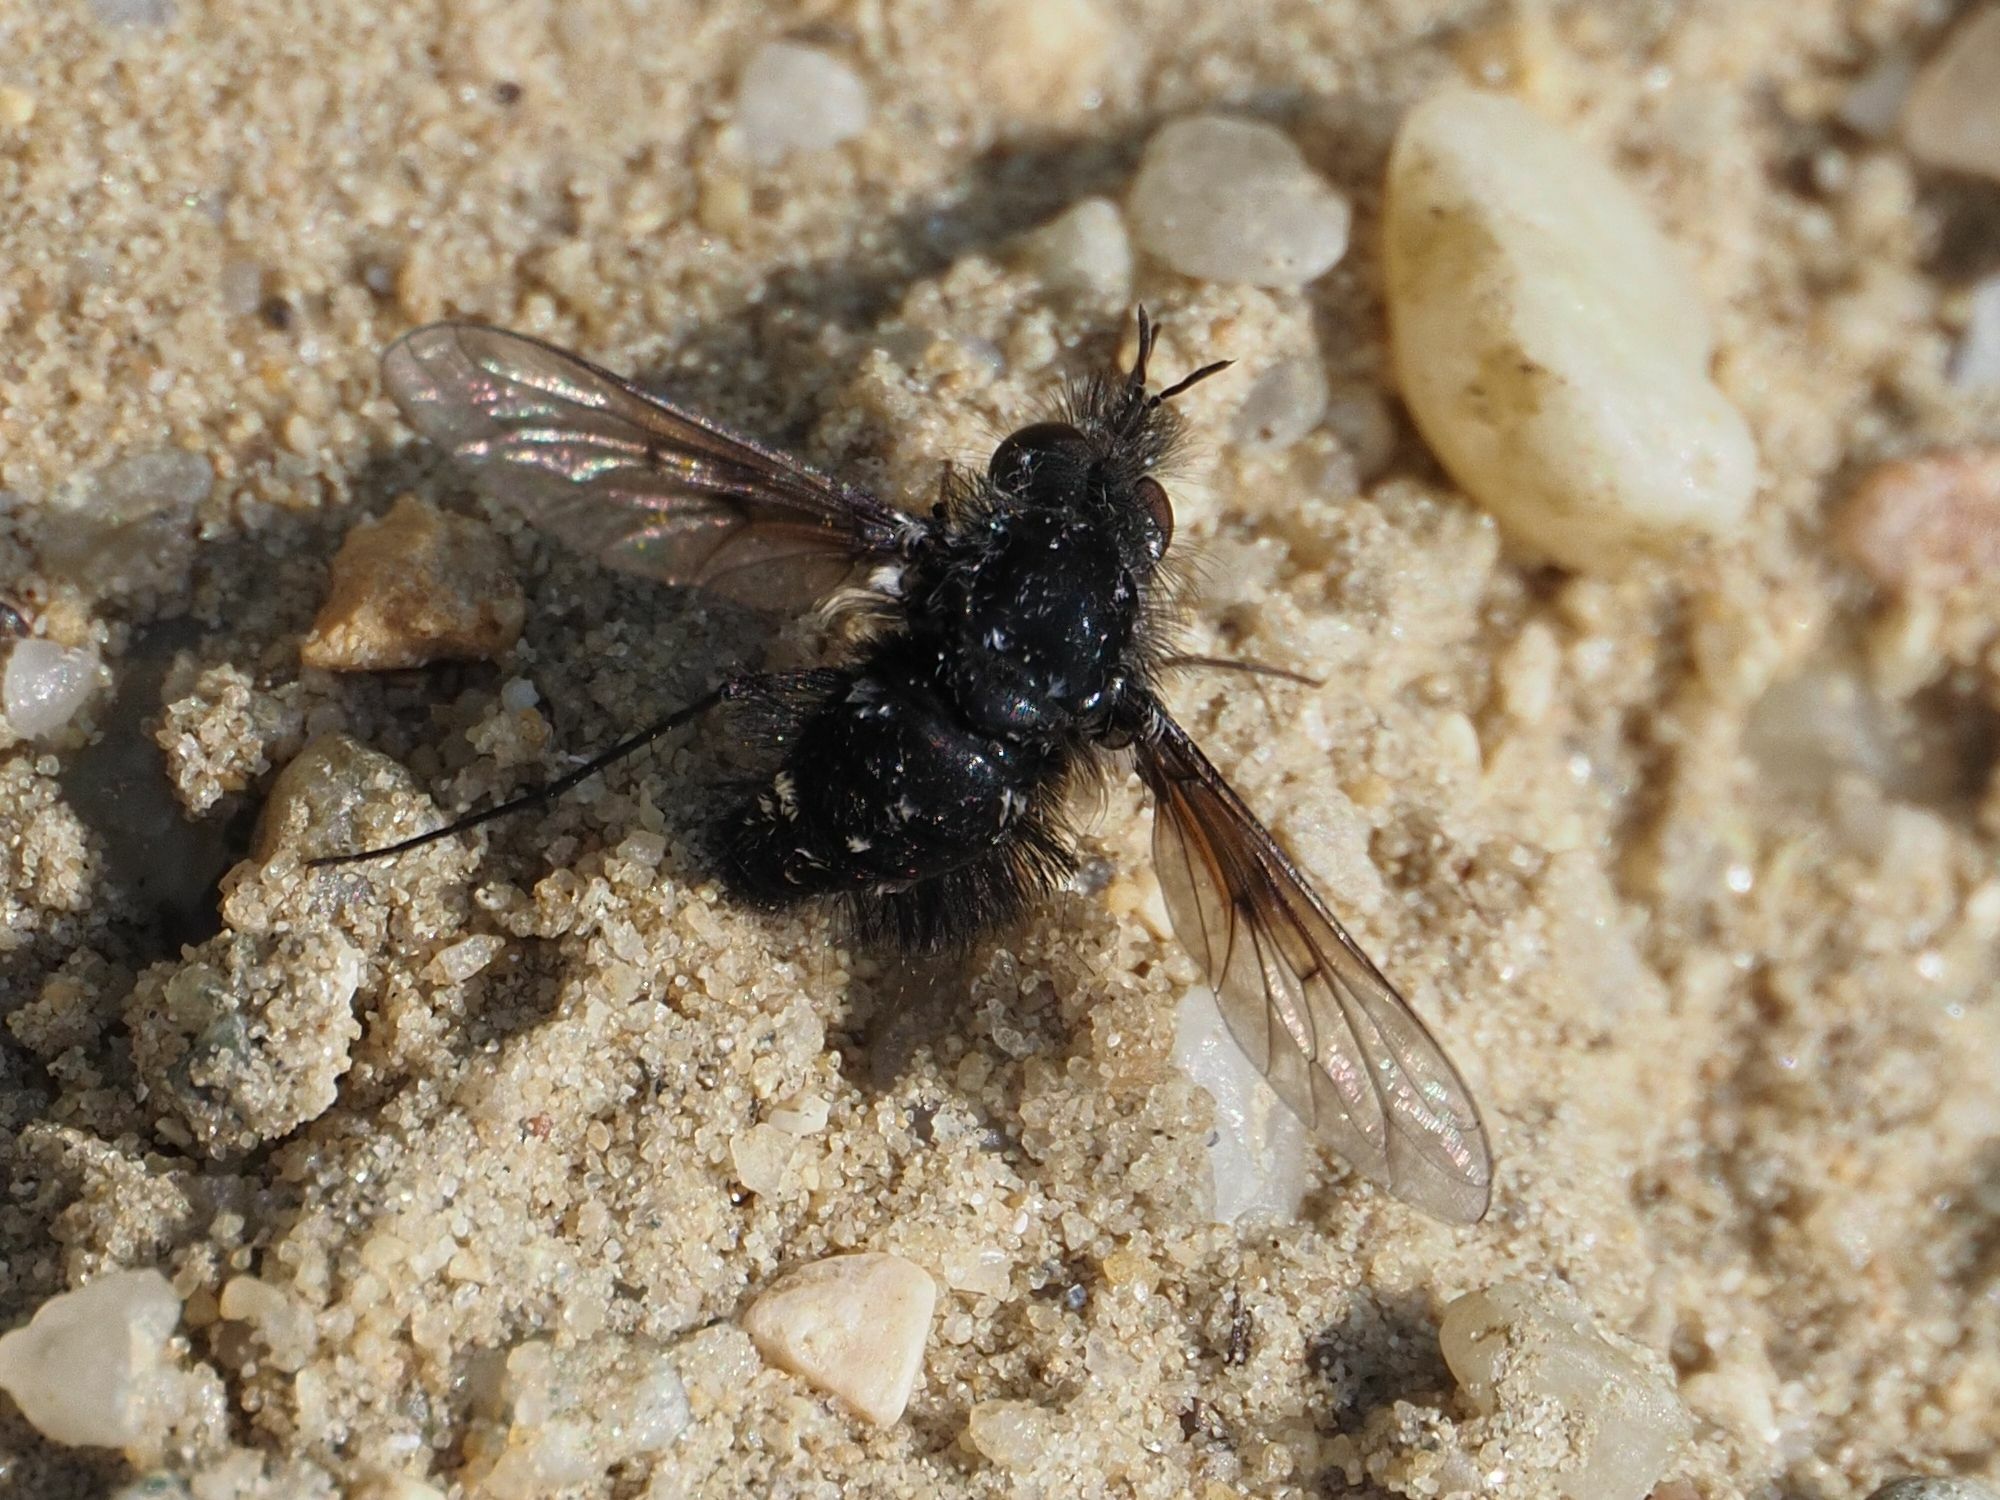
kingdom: Animalia
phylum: Arthropoda
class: Insecta
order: Diptera
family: Bombyliidae
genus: Bombylella
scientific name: Bombylella atra
